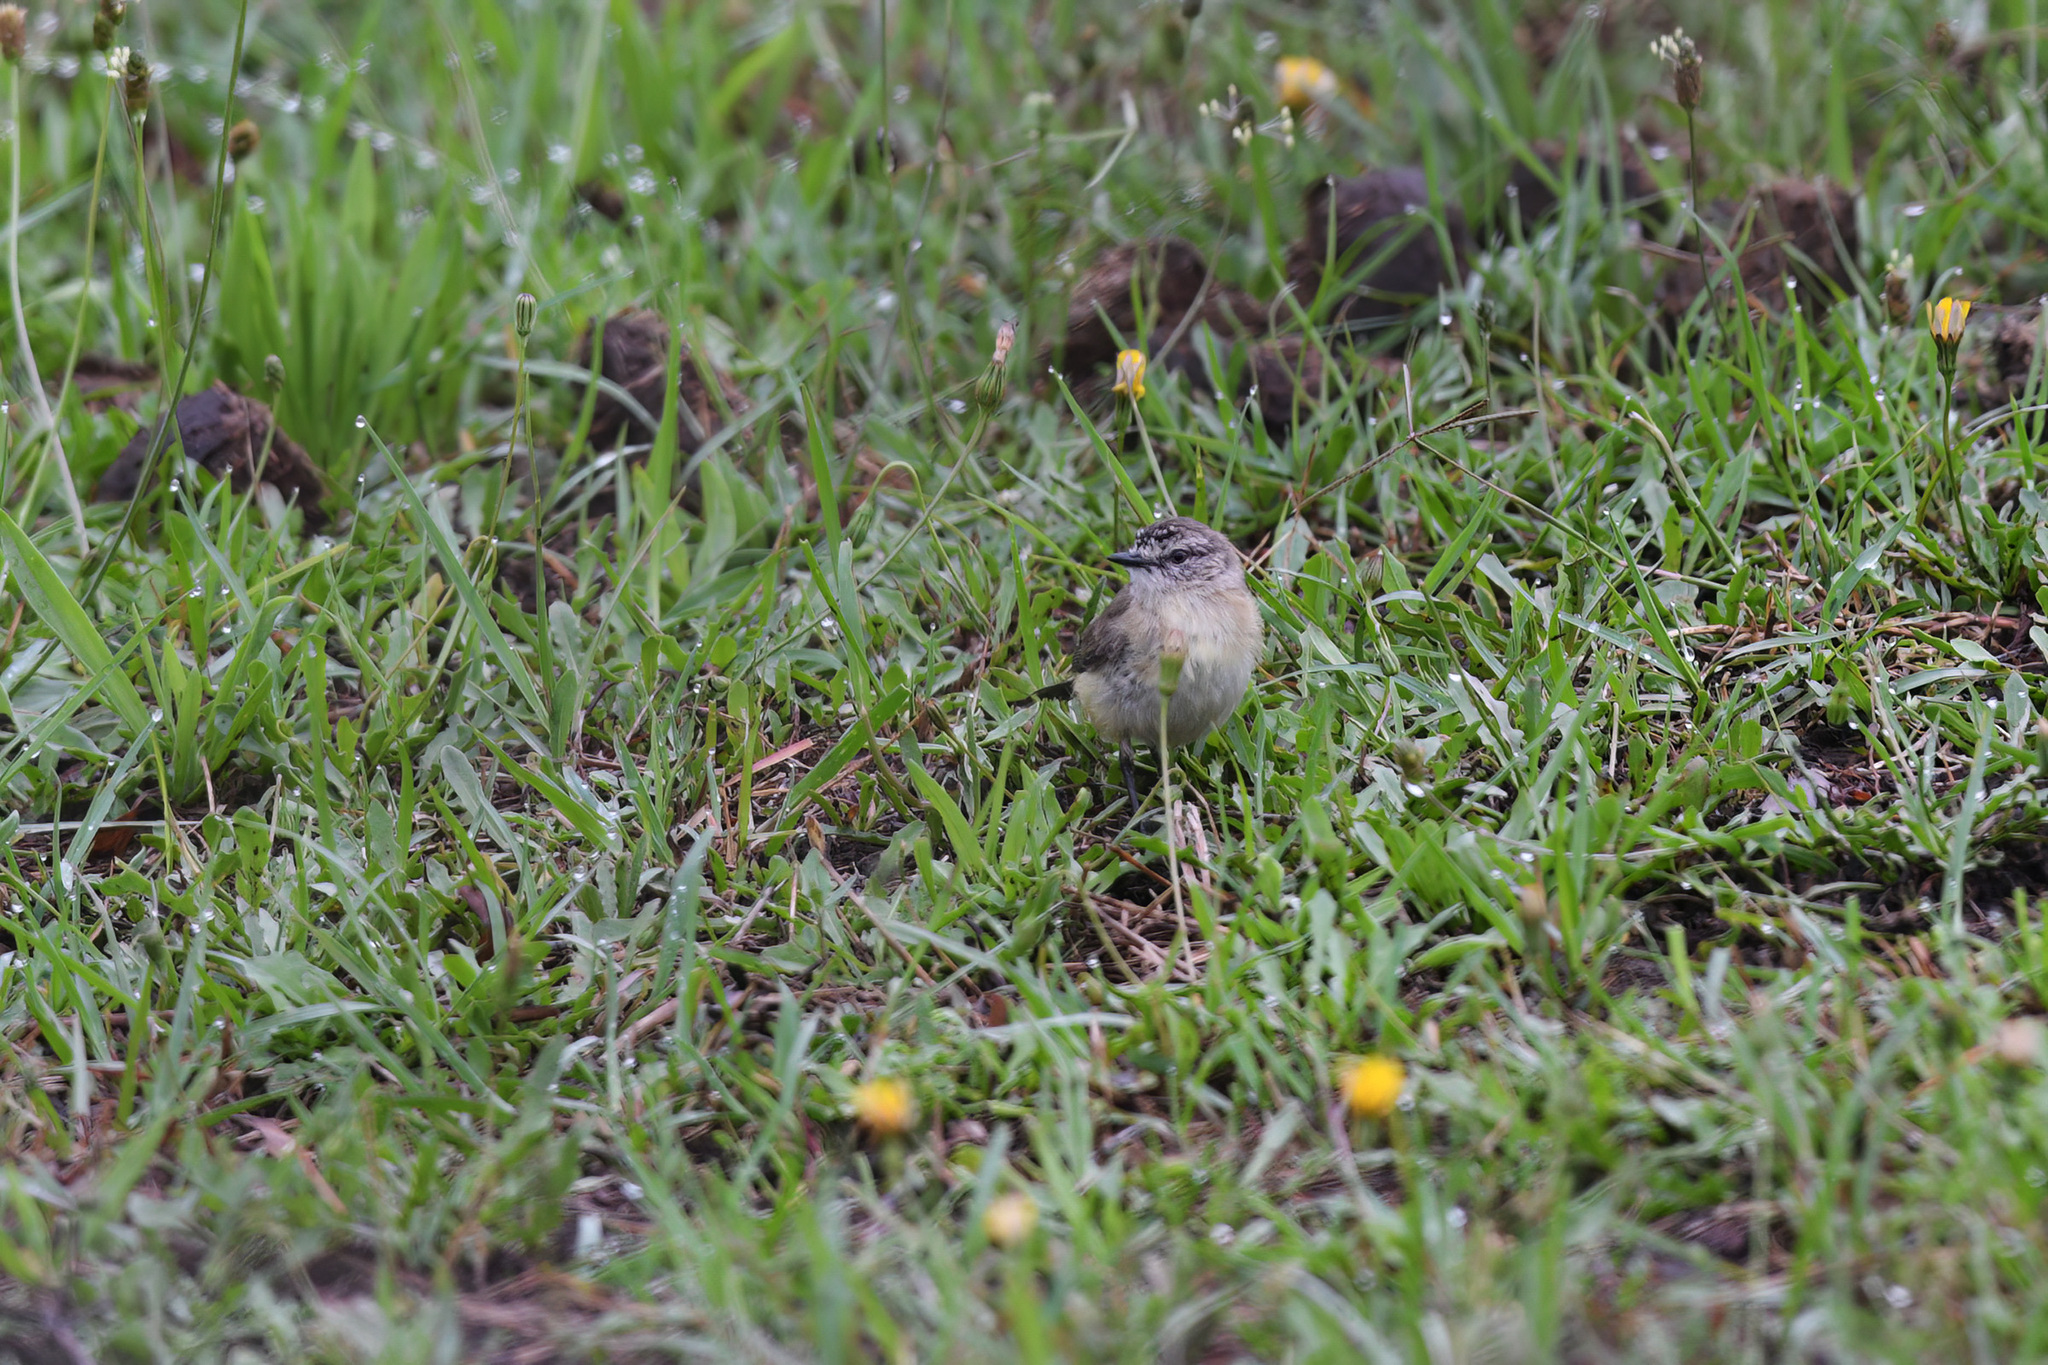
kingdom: Animalia
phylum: Chordata
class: Aves
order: Passeriformes
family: Acanthizidae
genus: Acanthiza
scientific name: Acanthiza chrysorrhoa
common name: Yellow-rumped thornbill
